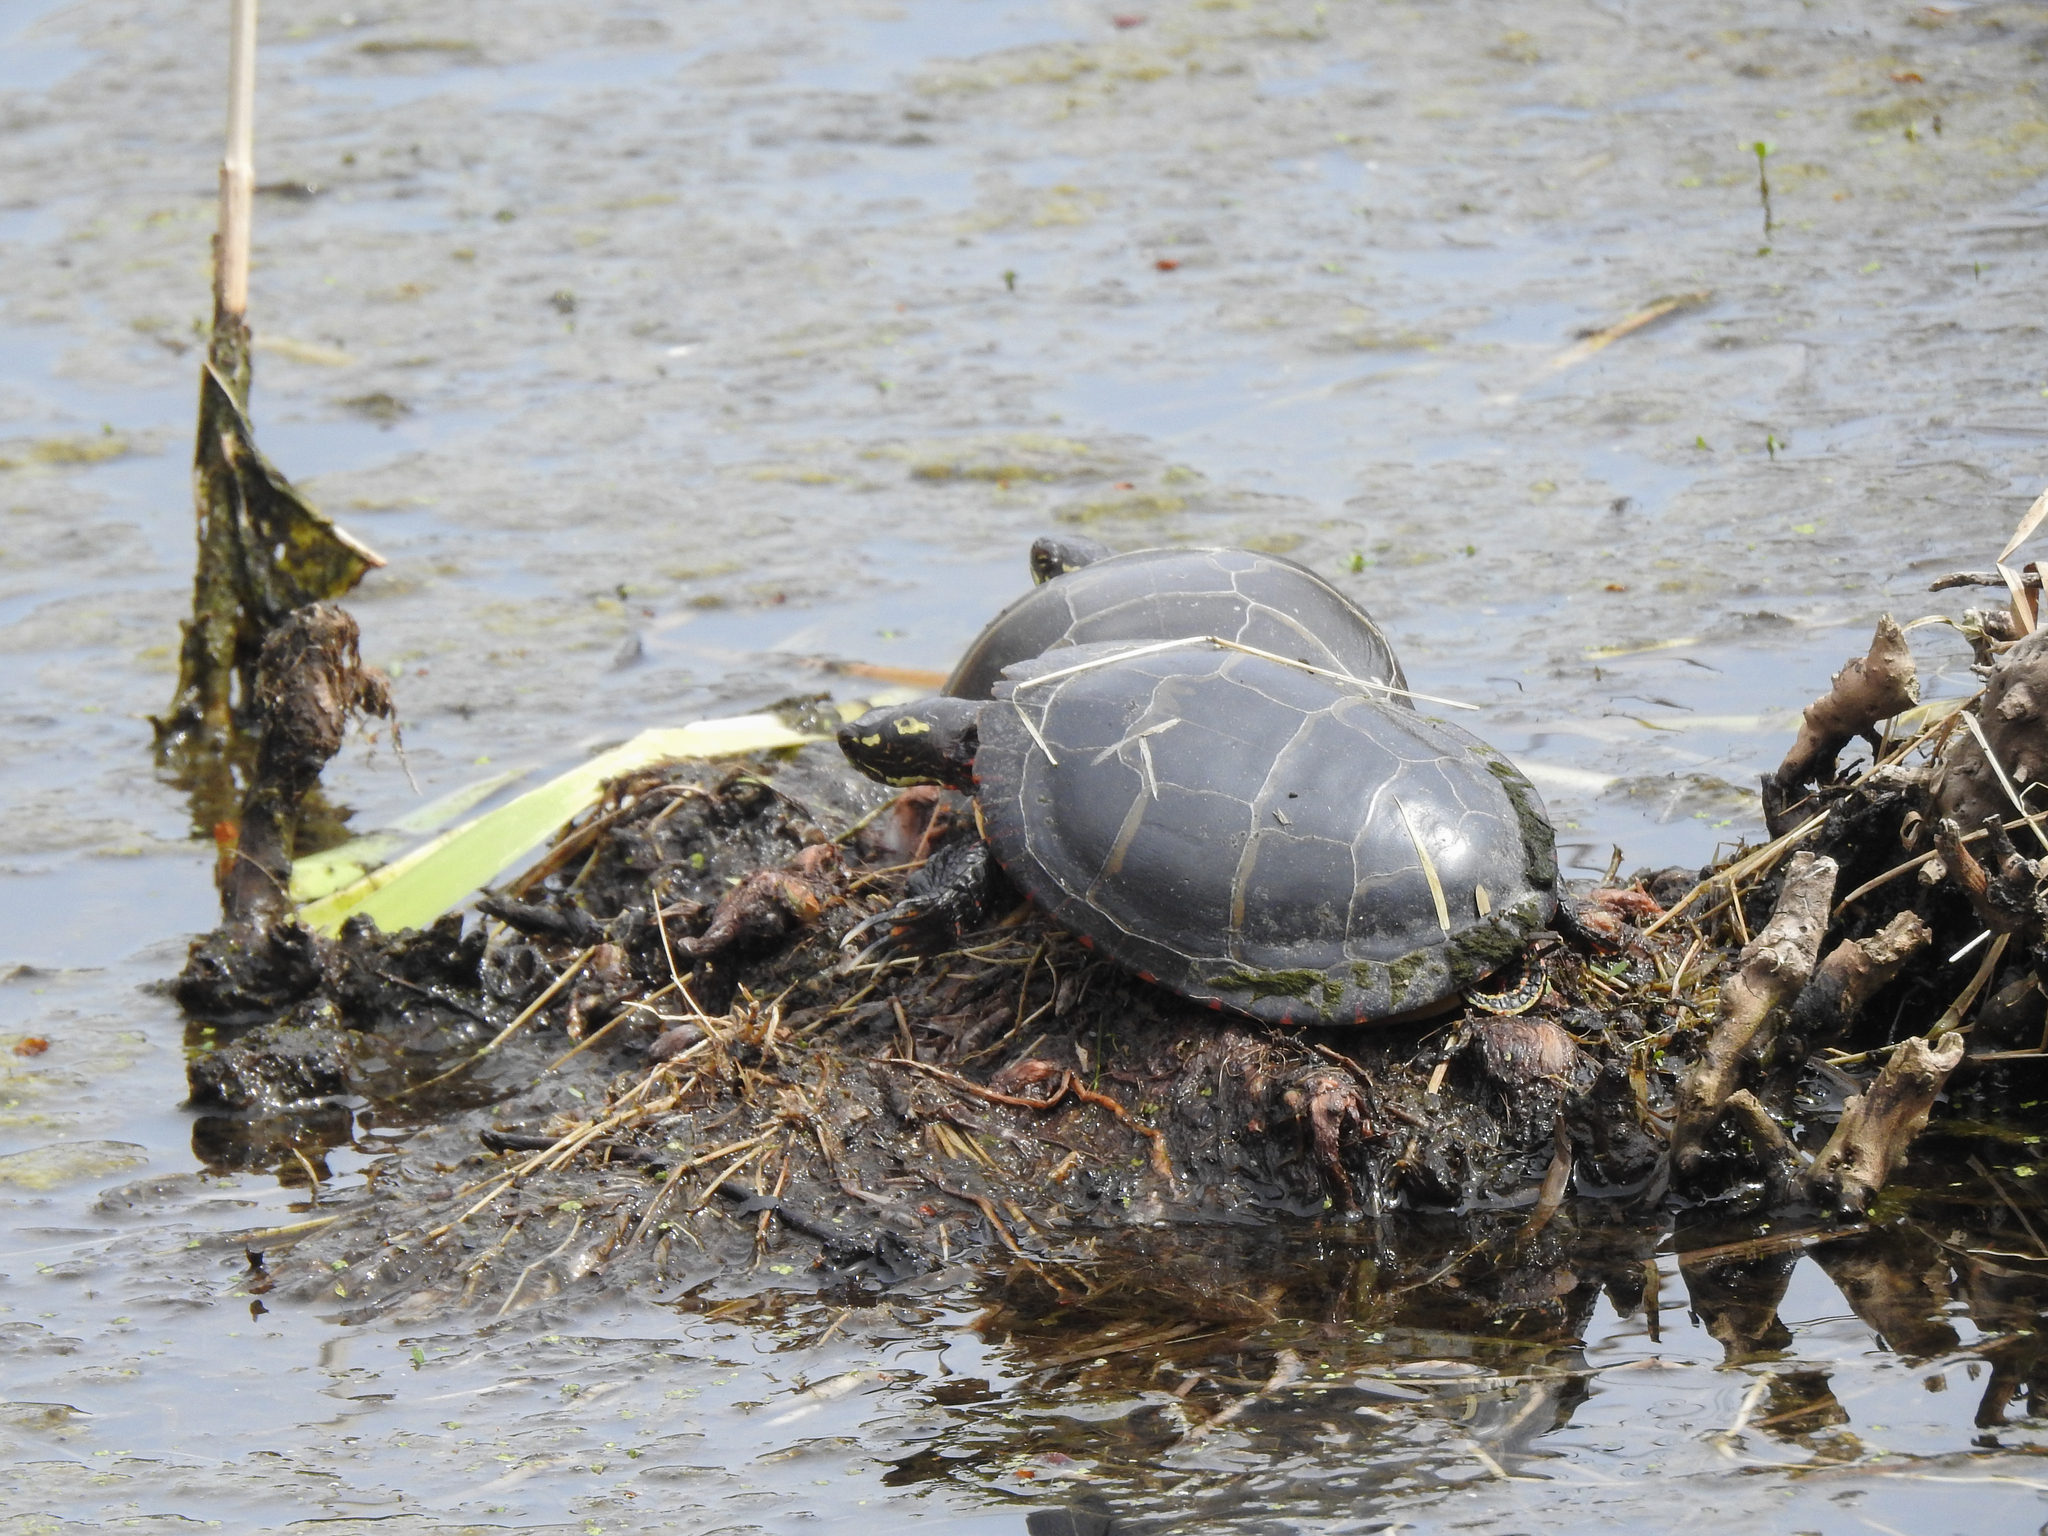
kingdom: Animalia
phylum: Chordata
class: Testudines
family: Emydidae
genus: Chrysemys
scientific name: Chrysemys picta
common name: Painted turtle
